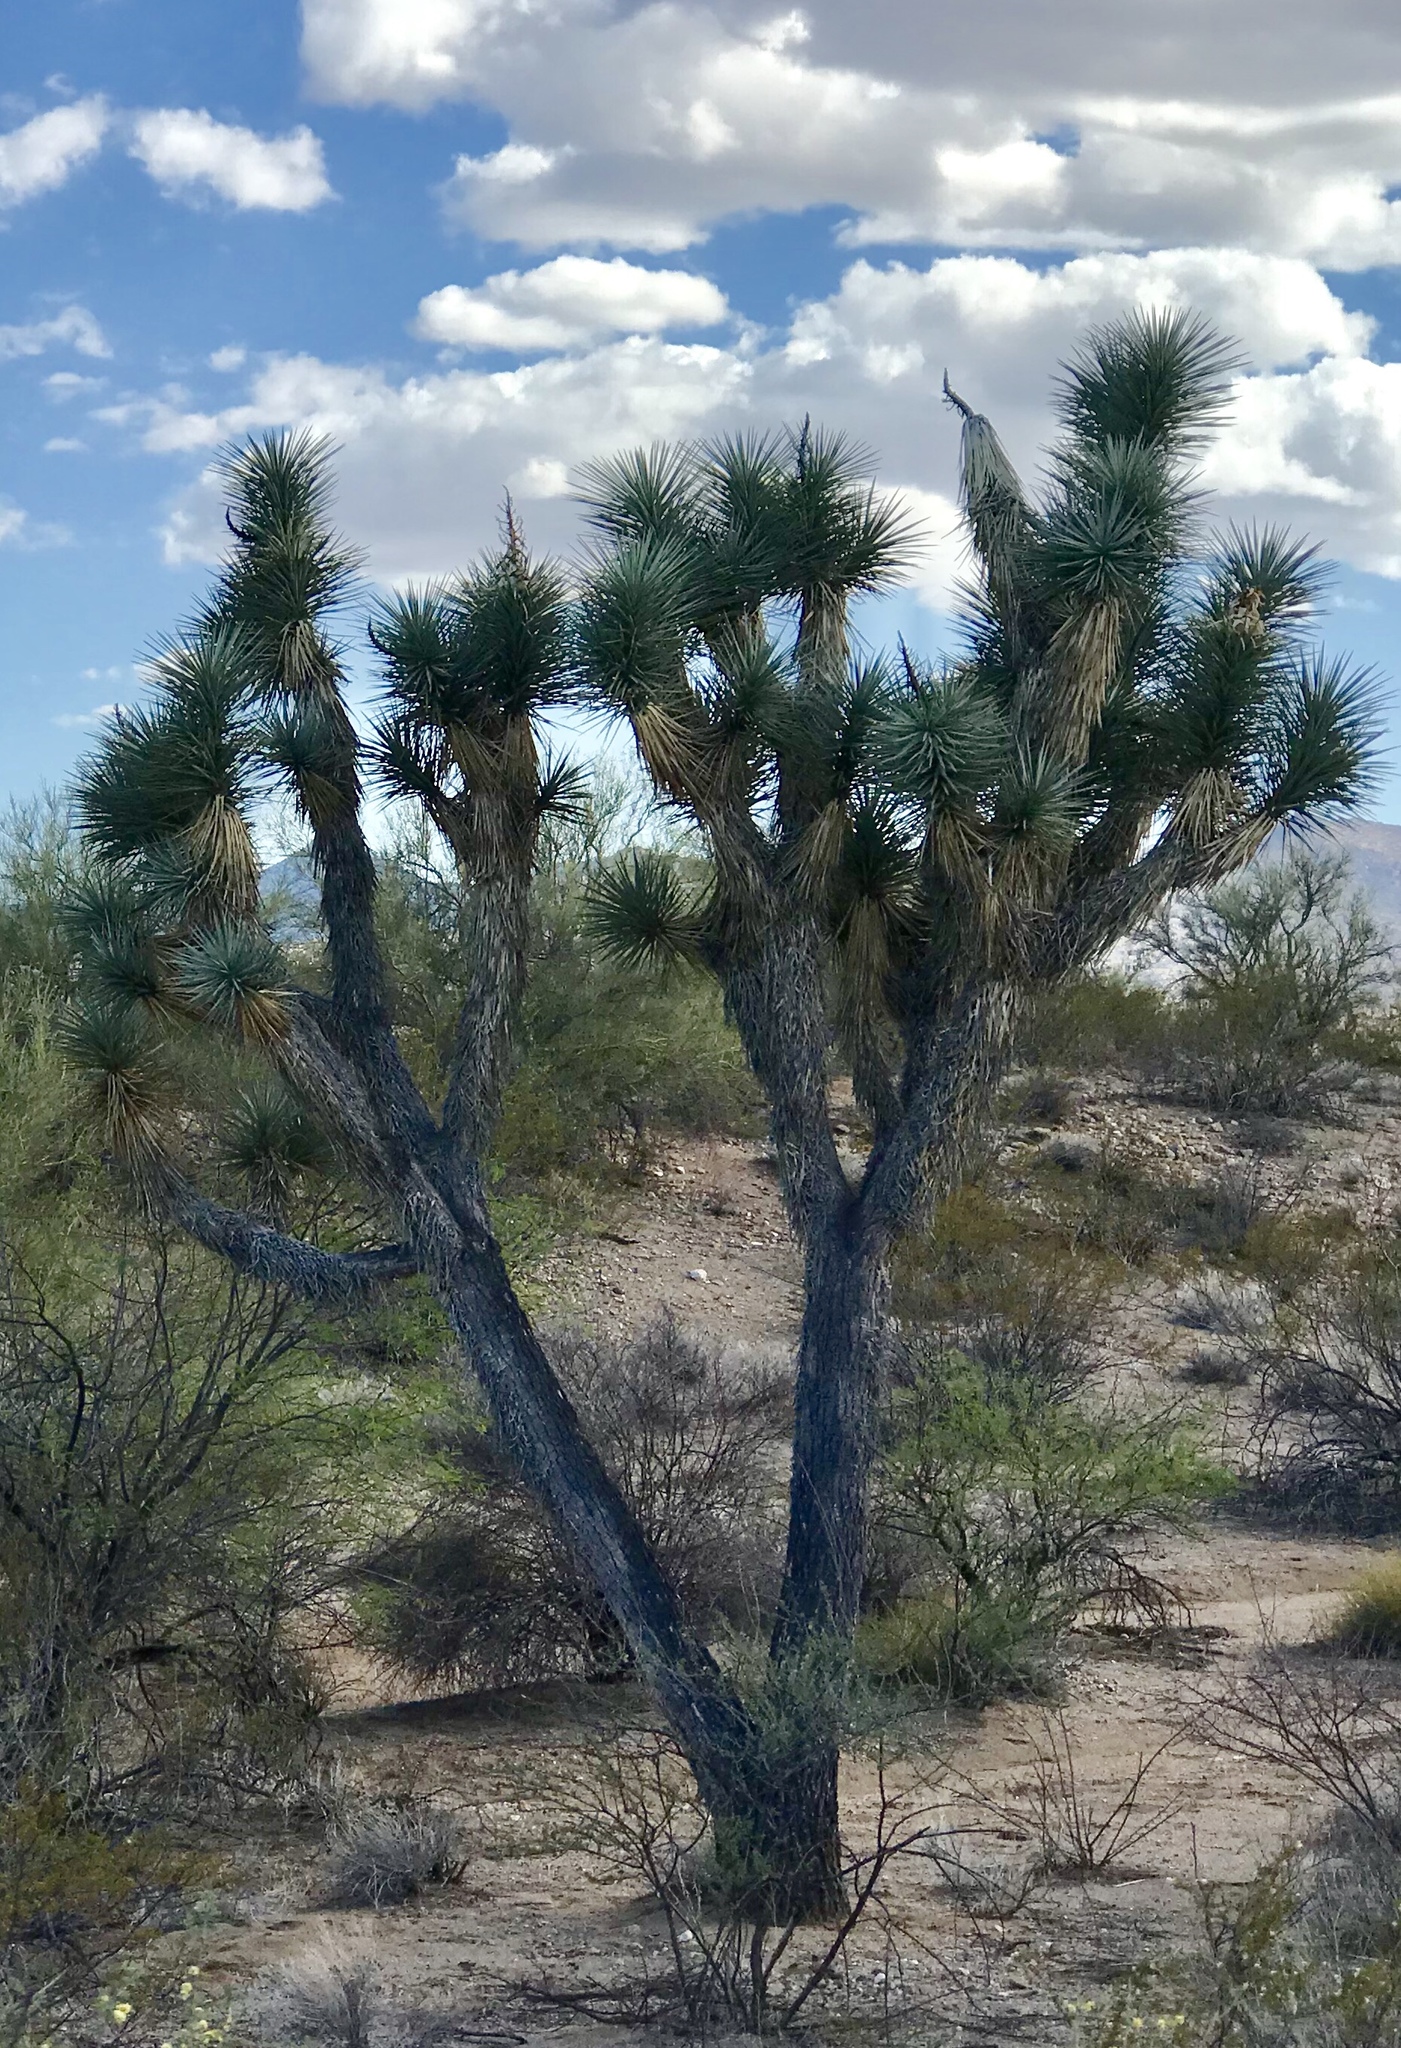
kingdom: Plantae
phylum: Tracheophyta
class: Liliopsida
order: Asparagales
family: Asparagaceae
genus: Yucca
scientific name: Yucca brevifolia
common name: Joshua tree
